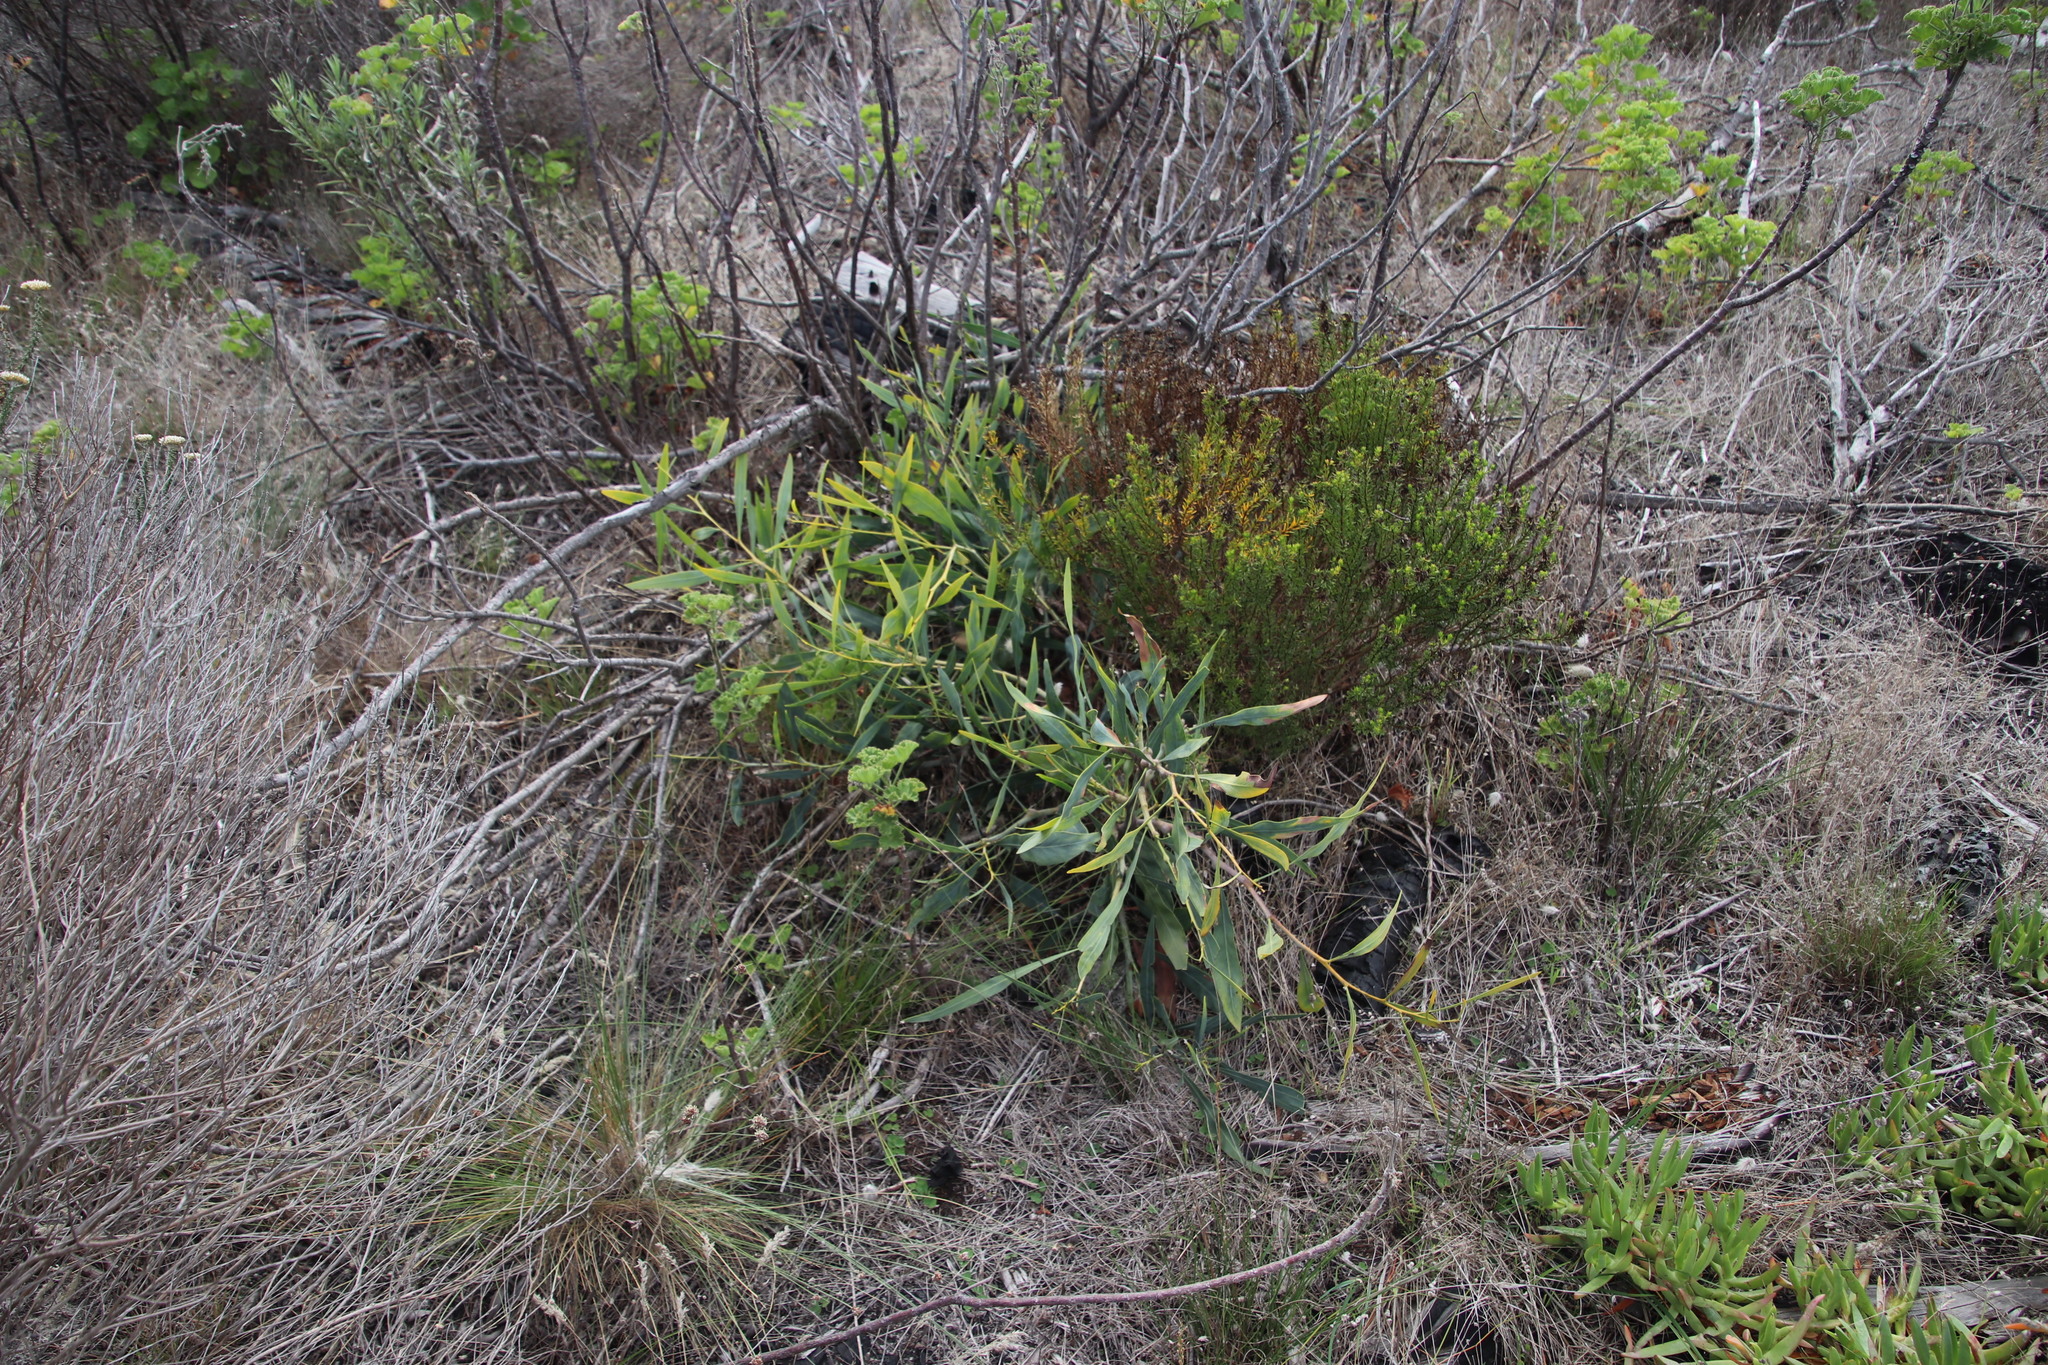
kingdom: Plantae
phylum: Tracheophyta
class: Magnoliopsida
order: Fabales
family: Fabaceae
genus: Acacia
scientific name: Acacia saligna
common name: Orange wattle
